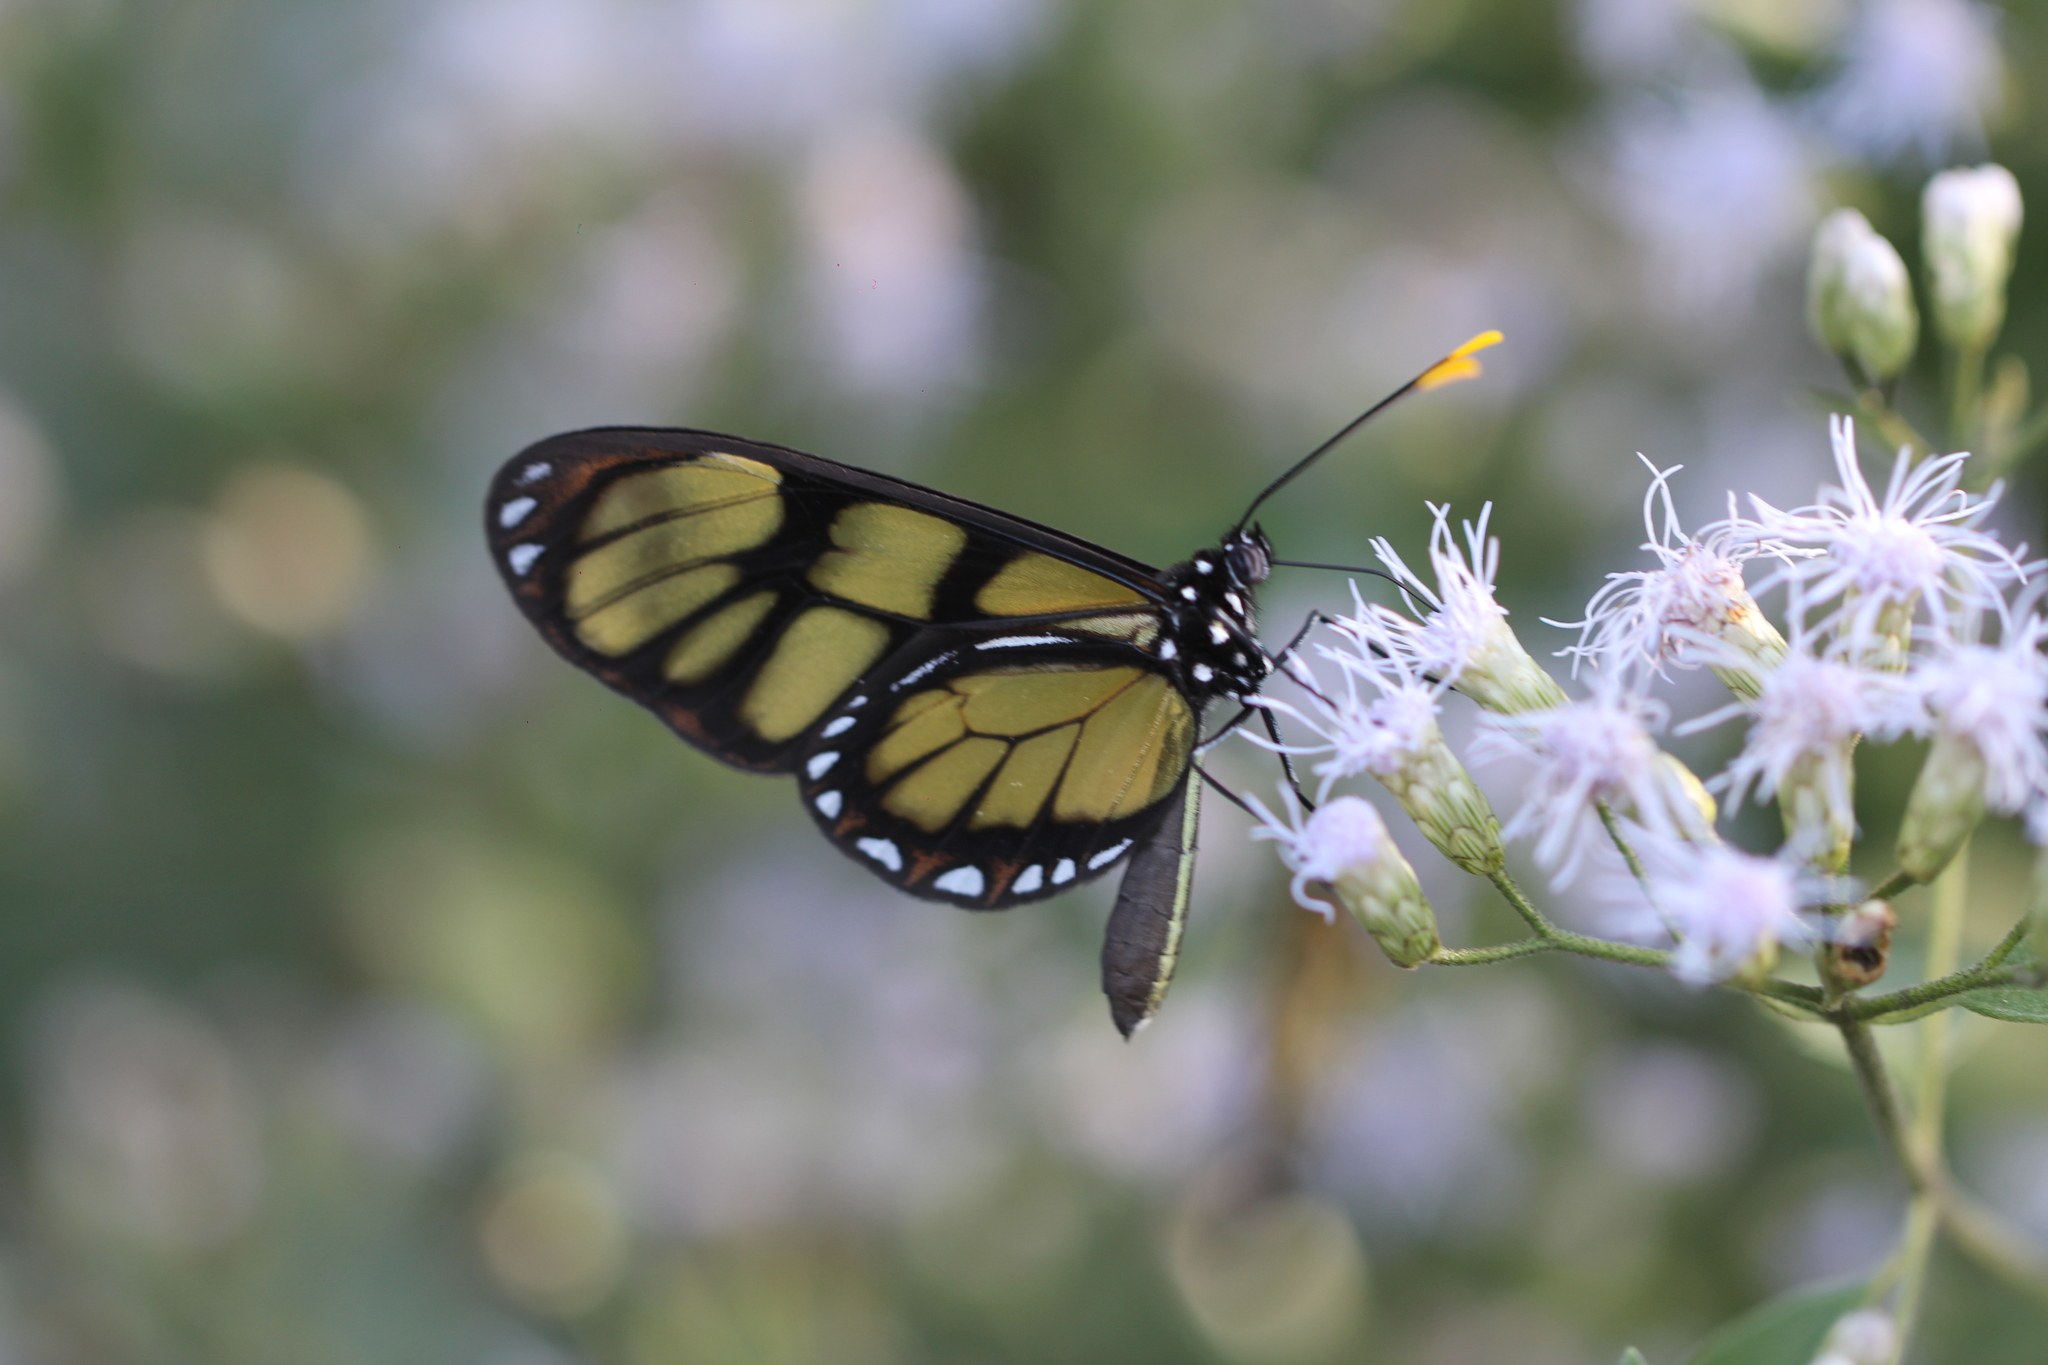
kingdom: Animalia
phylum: Arthropoda
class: Insecta
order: Lepidoptera
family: Nymphalidae
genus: Dircenna
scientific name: Dircenna dero
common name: Dero clearwing
